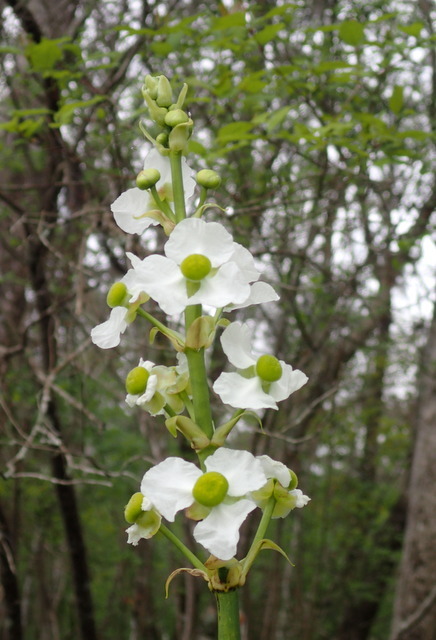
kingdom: Plantae
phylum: Tracheophyta
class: Liliopsida
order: Alismatales
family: Alismataceae
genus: Sagittaria
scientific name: Sagittaria lancifolia
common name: Lance-leaf arrowhead
